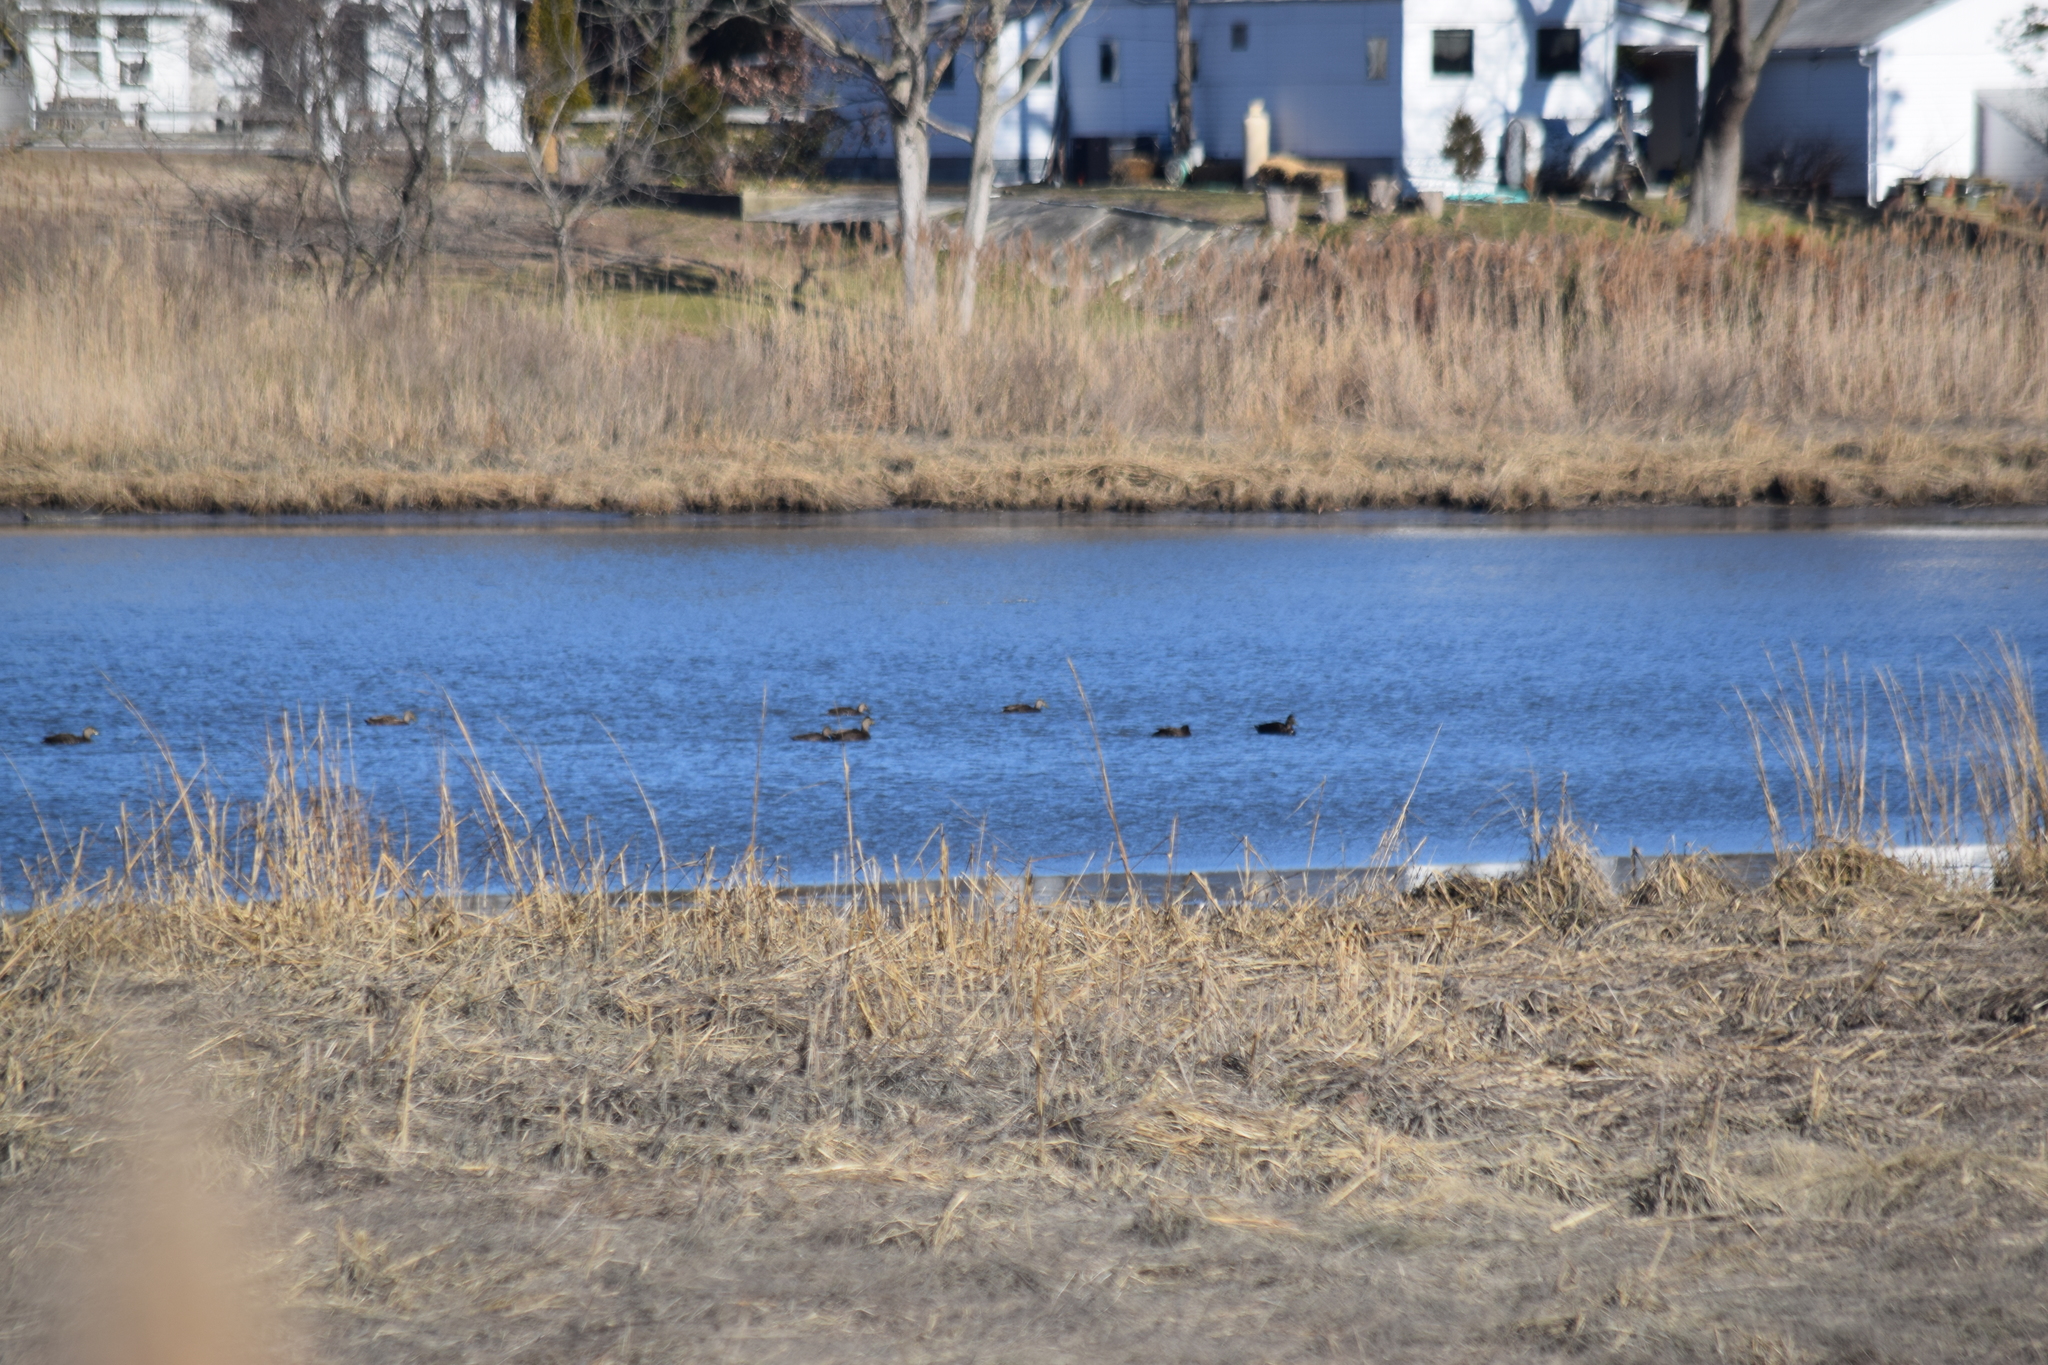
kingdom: Animalia
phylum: Chordata
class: Aves
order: Anseriformes
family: Anatidae
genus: Anas
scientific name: Anas rubripes
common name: American black duck
